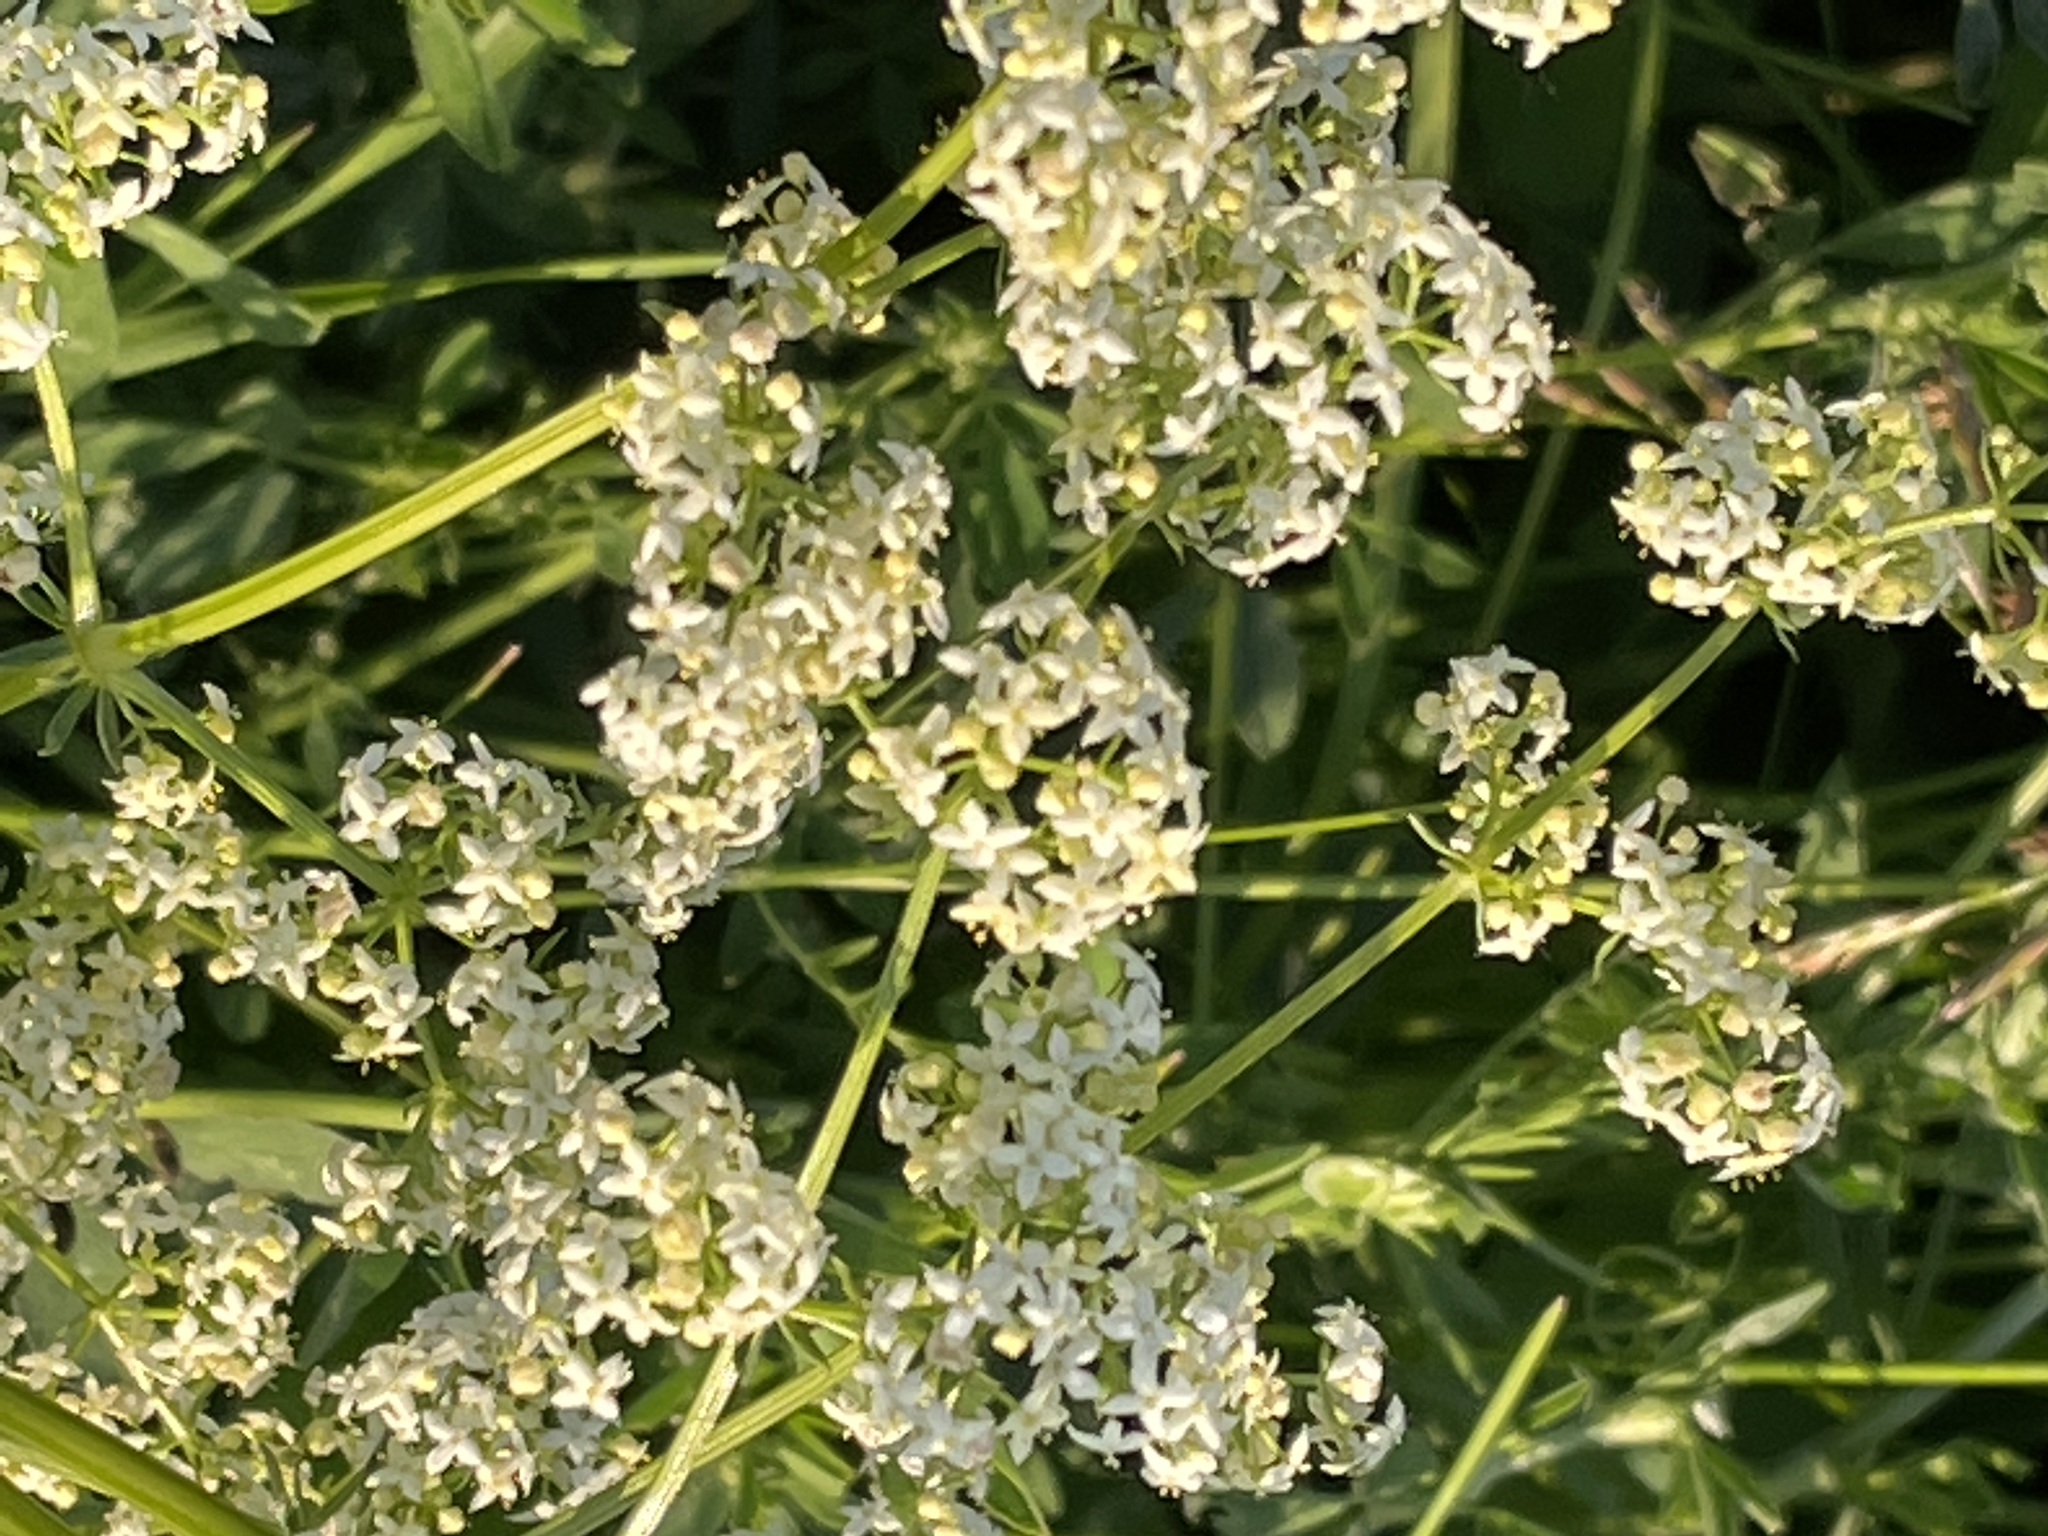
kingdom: Plantae
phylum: Tracheophyta
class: Magnoliopsida
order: Gentianales
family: Rubiaceae
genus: Galium
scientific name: Galium mollugo
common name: Hedge bedstraw
